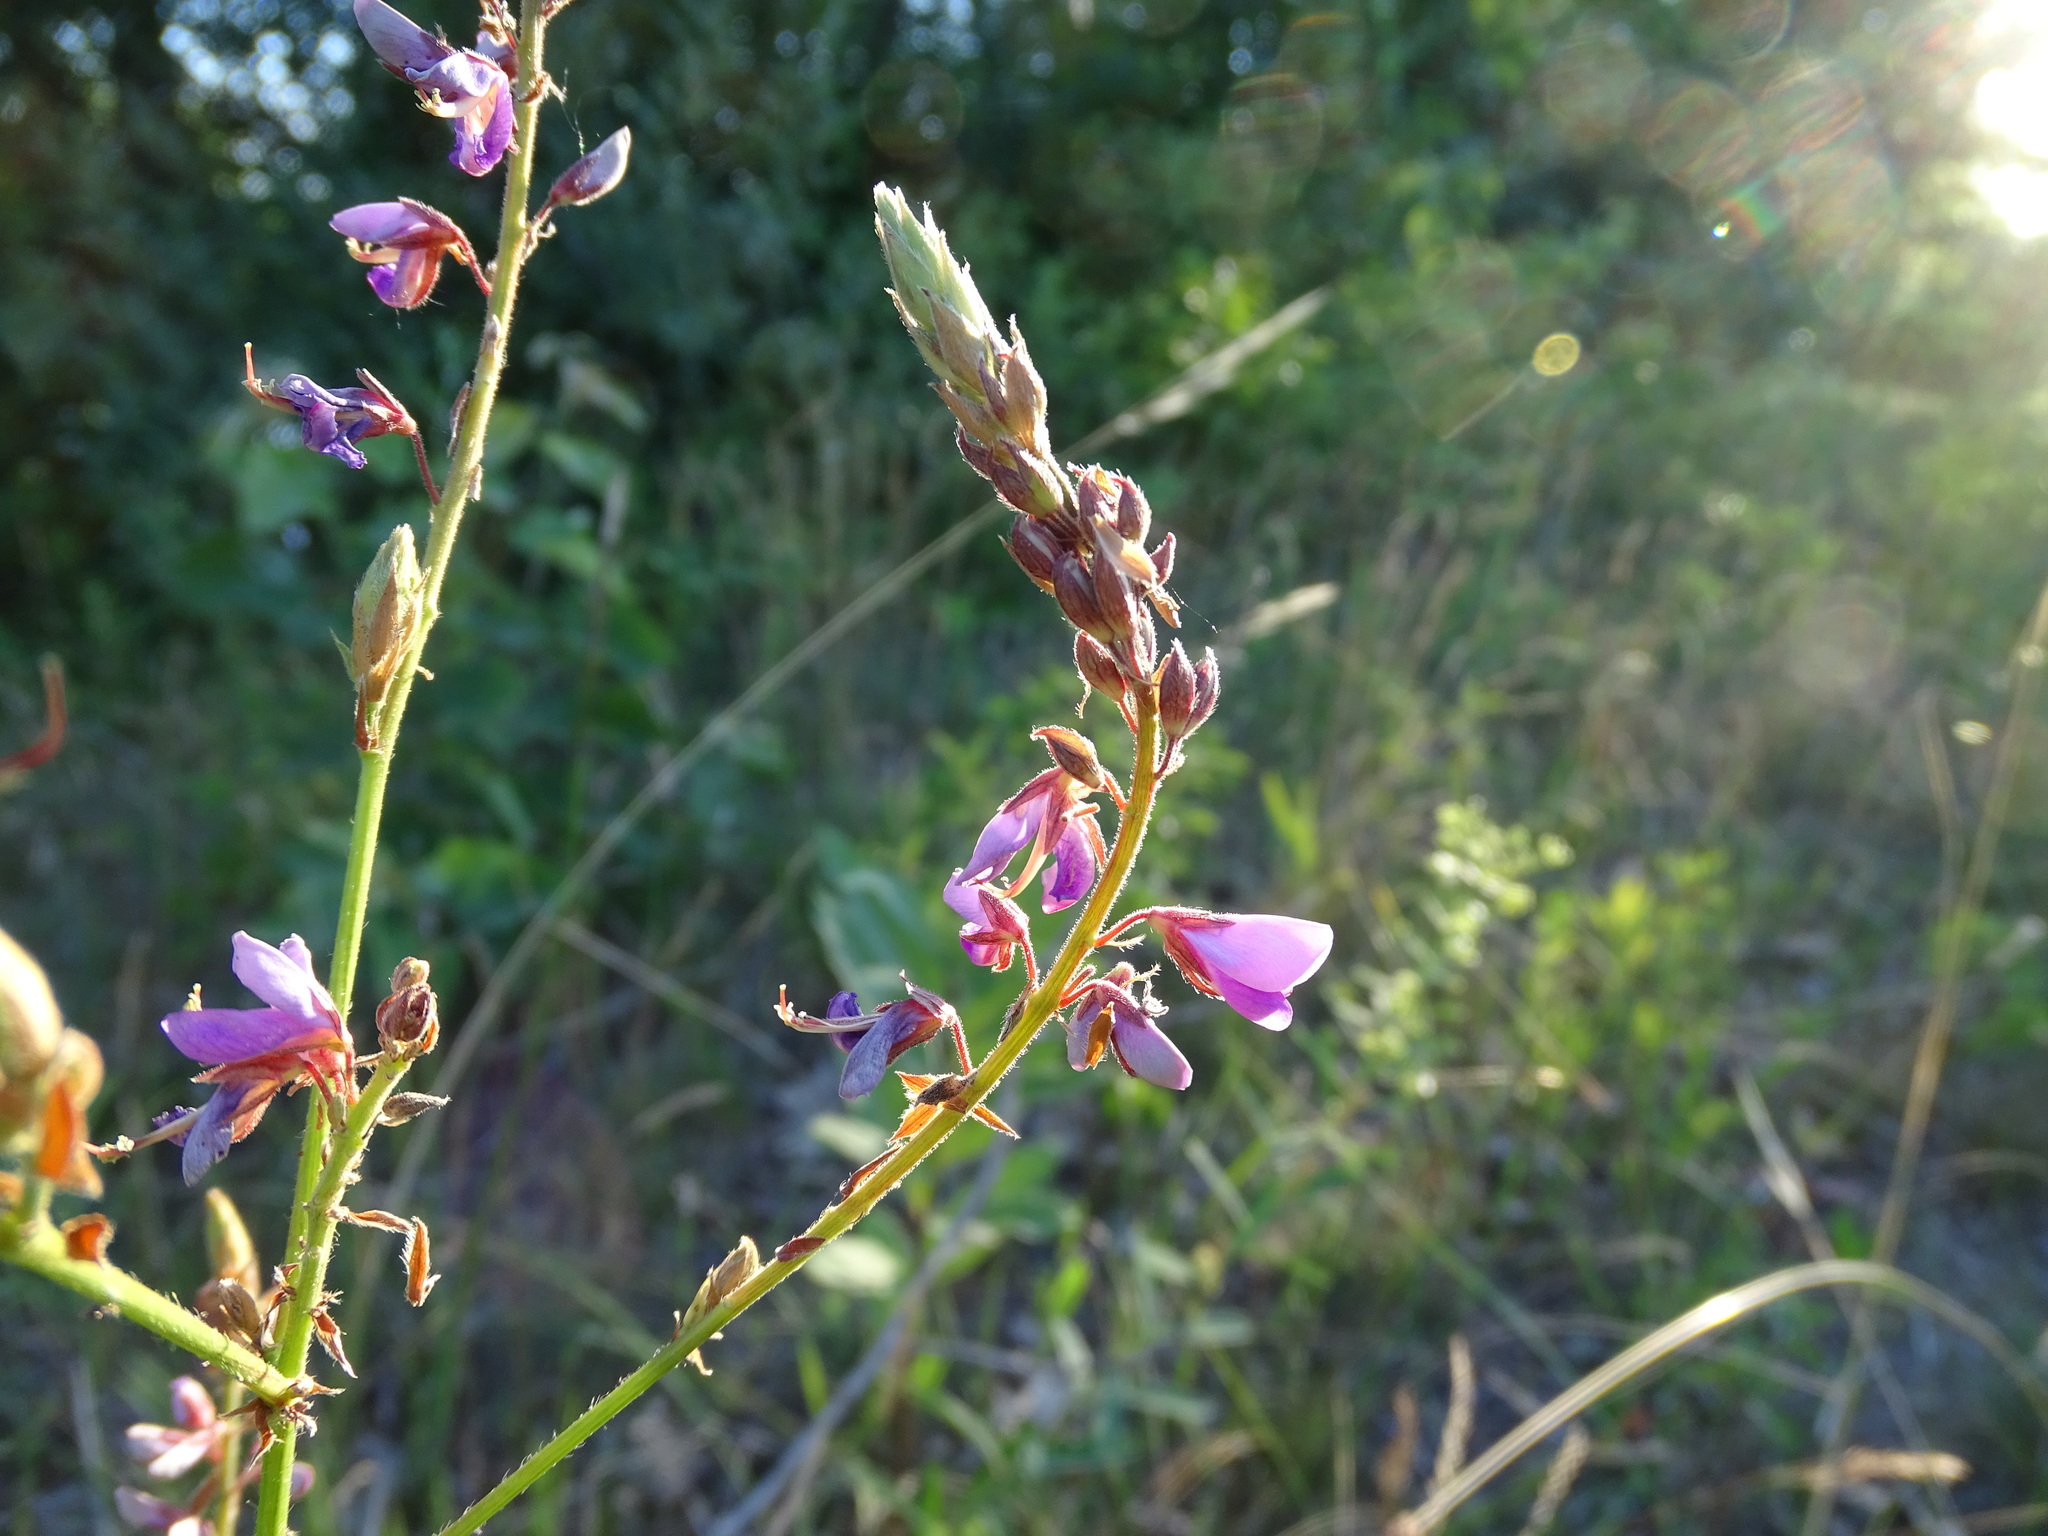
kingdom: Plantae
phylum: Tracheophyta
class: Magnoliopsida
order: Fabales
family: Fabaceae
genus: Desmodium
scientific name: Desmodium canadense
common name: Canada tick-trefoil
